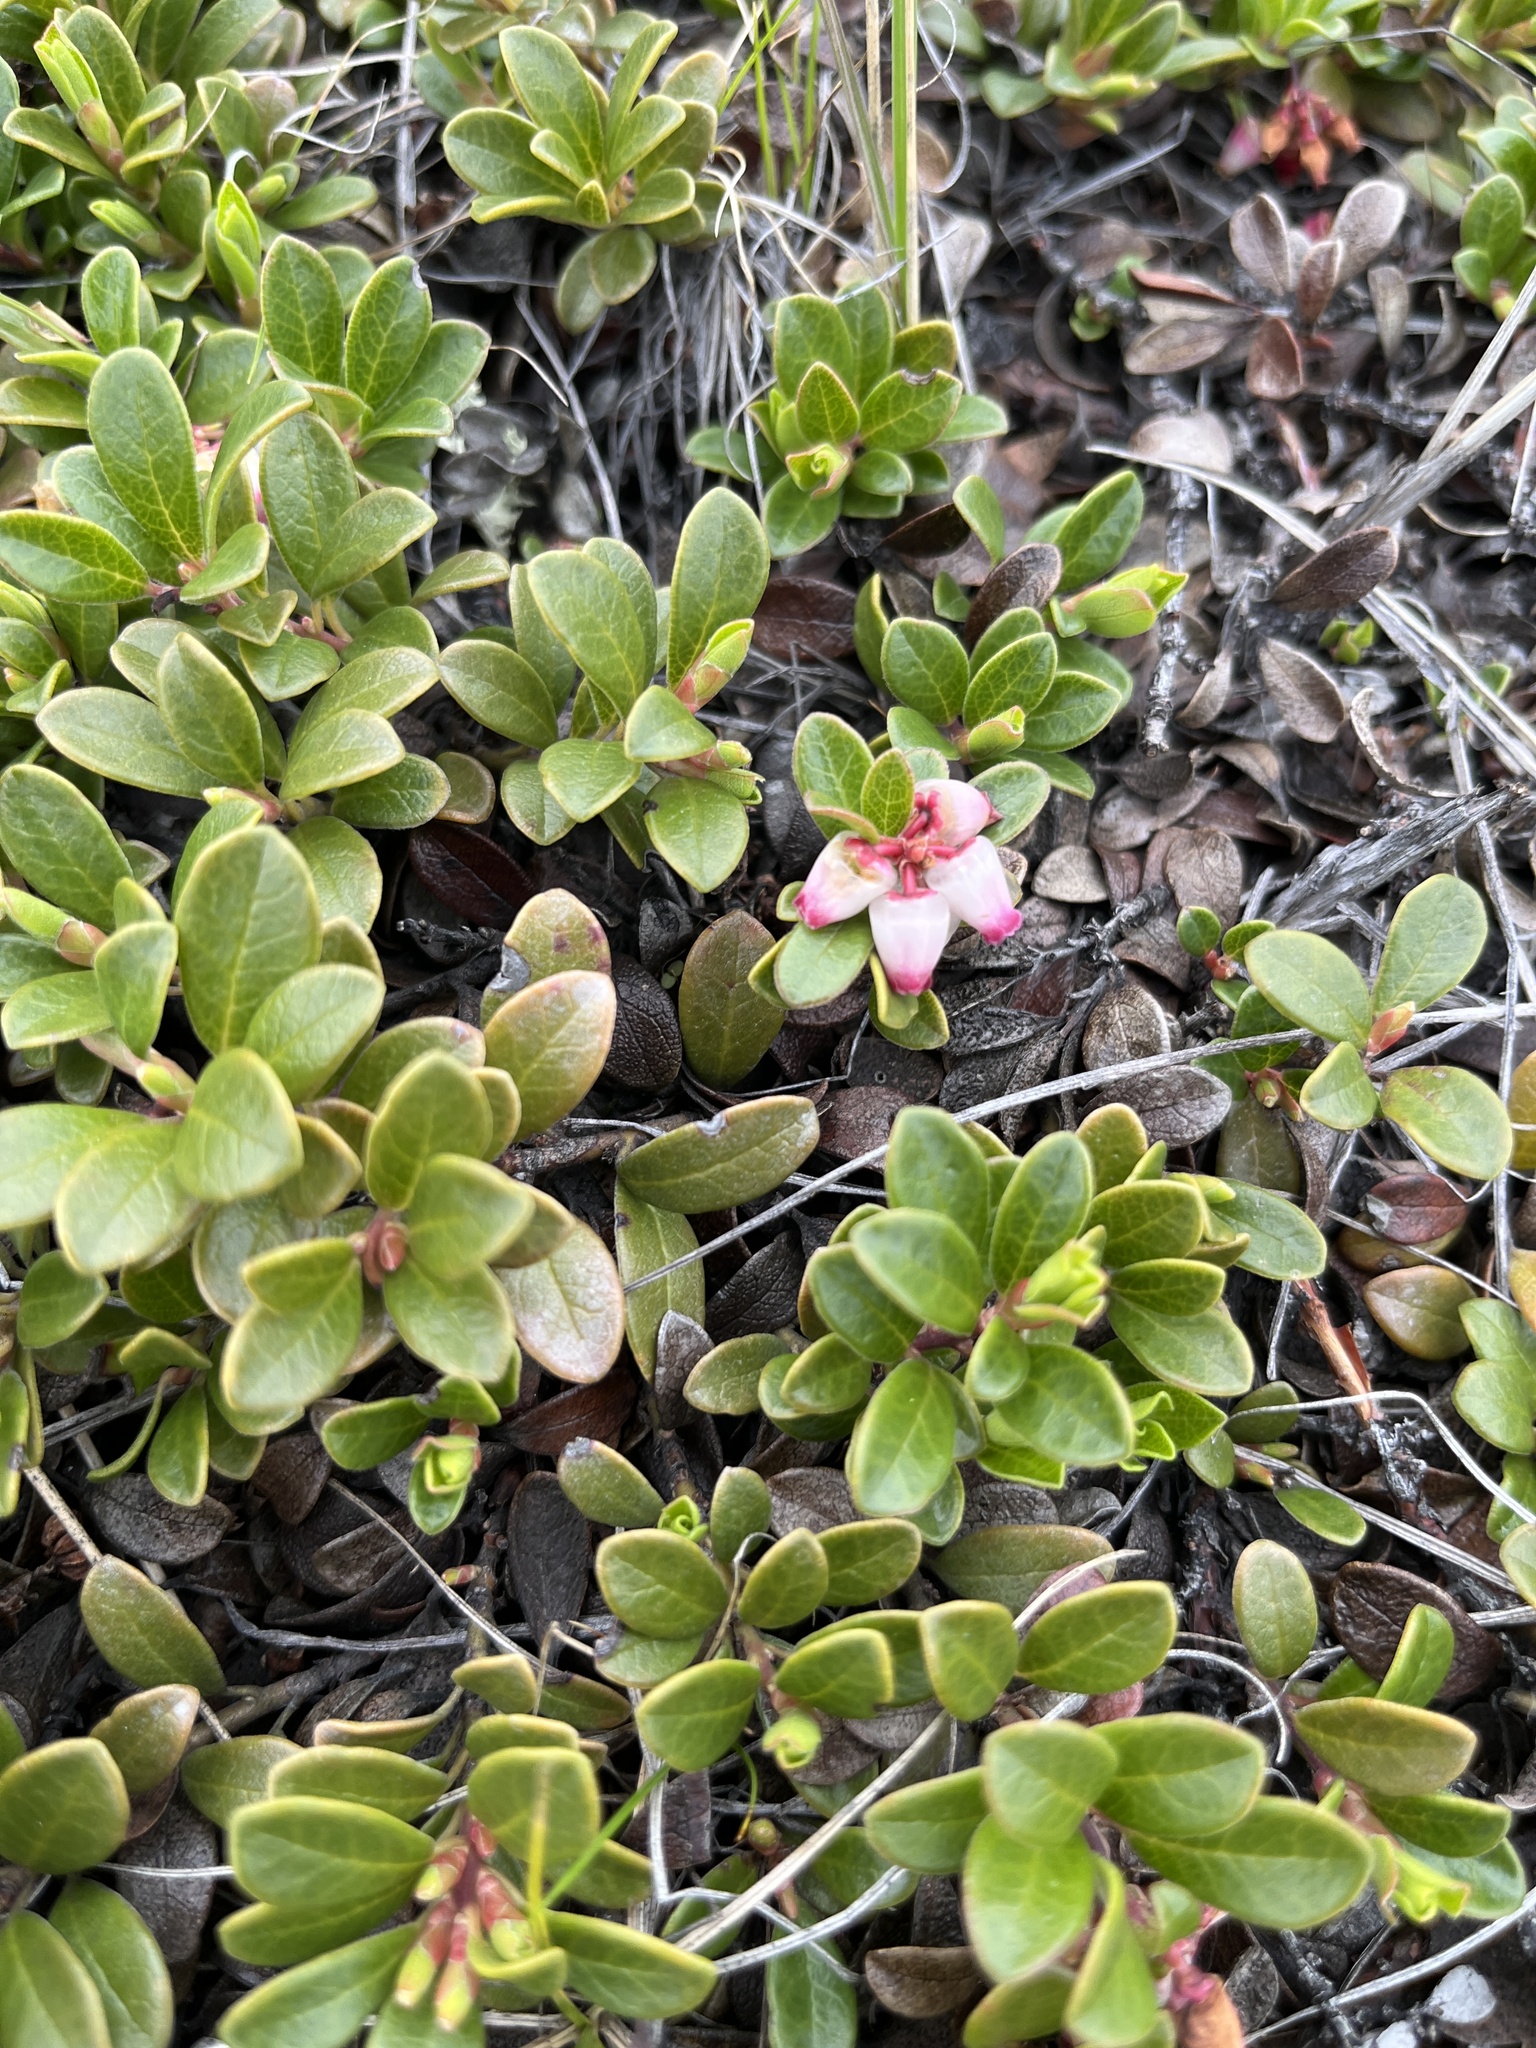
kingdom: Plantae
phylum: Tracheophyta
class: Magnoliopsida
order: Ericales
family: Ericaceae
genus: Arctostaphylos
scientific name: Arctostaphylos uva-ursi
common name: Bearberry
